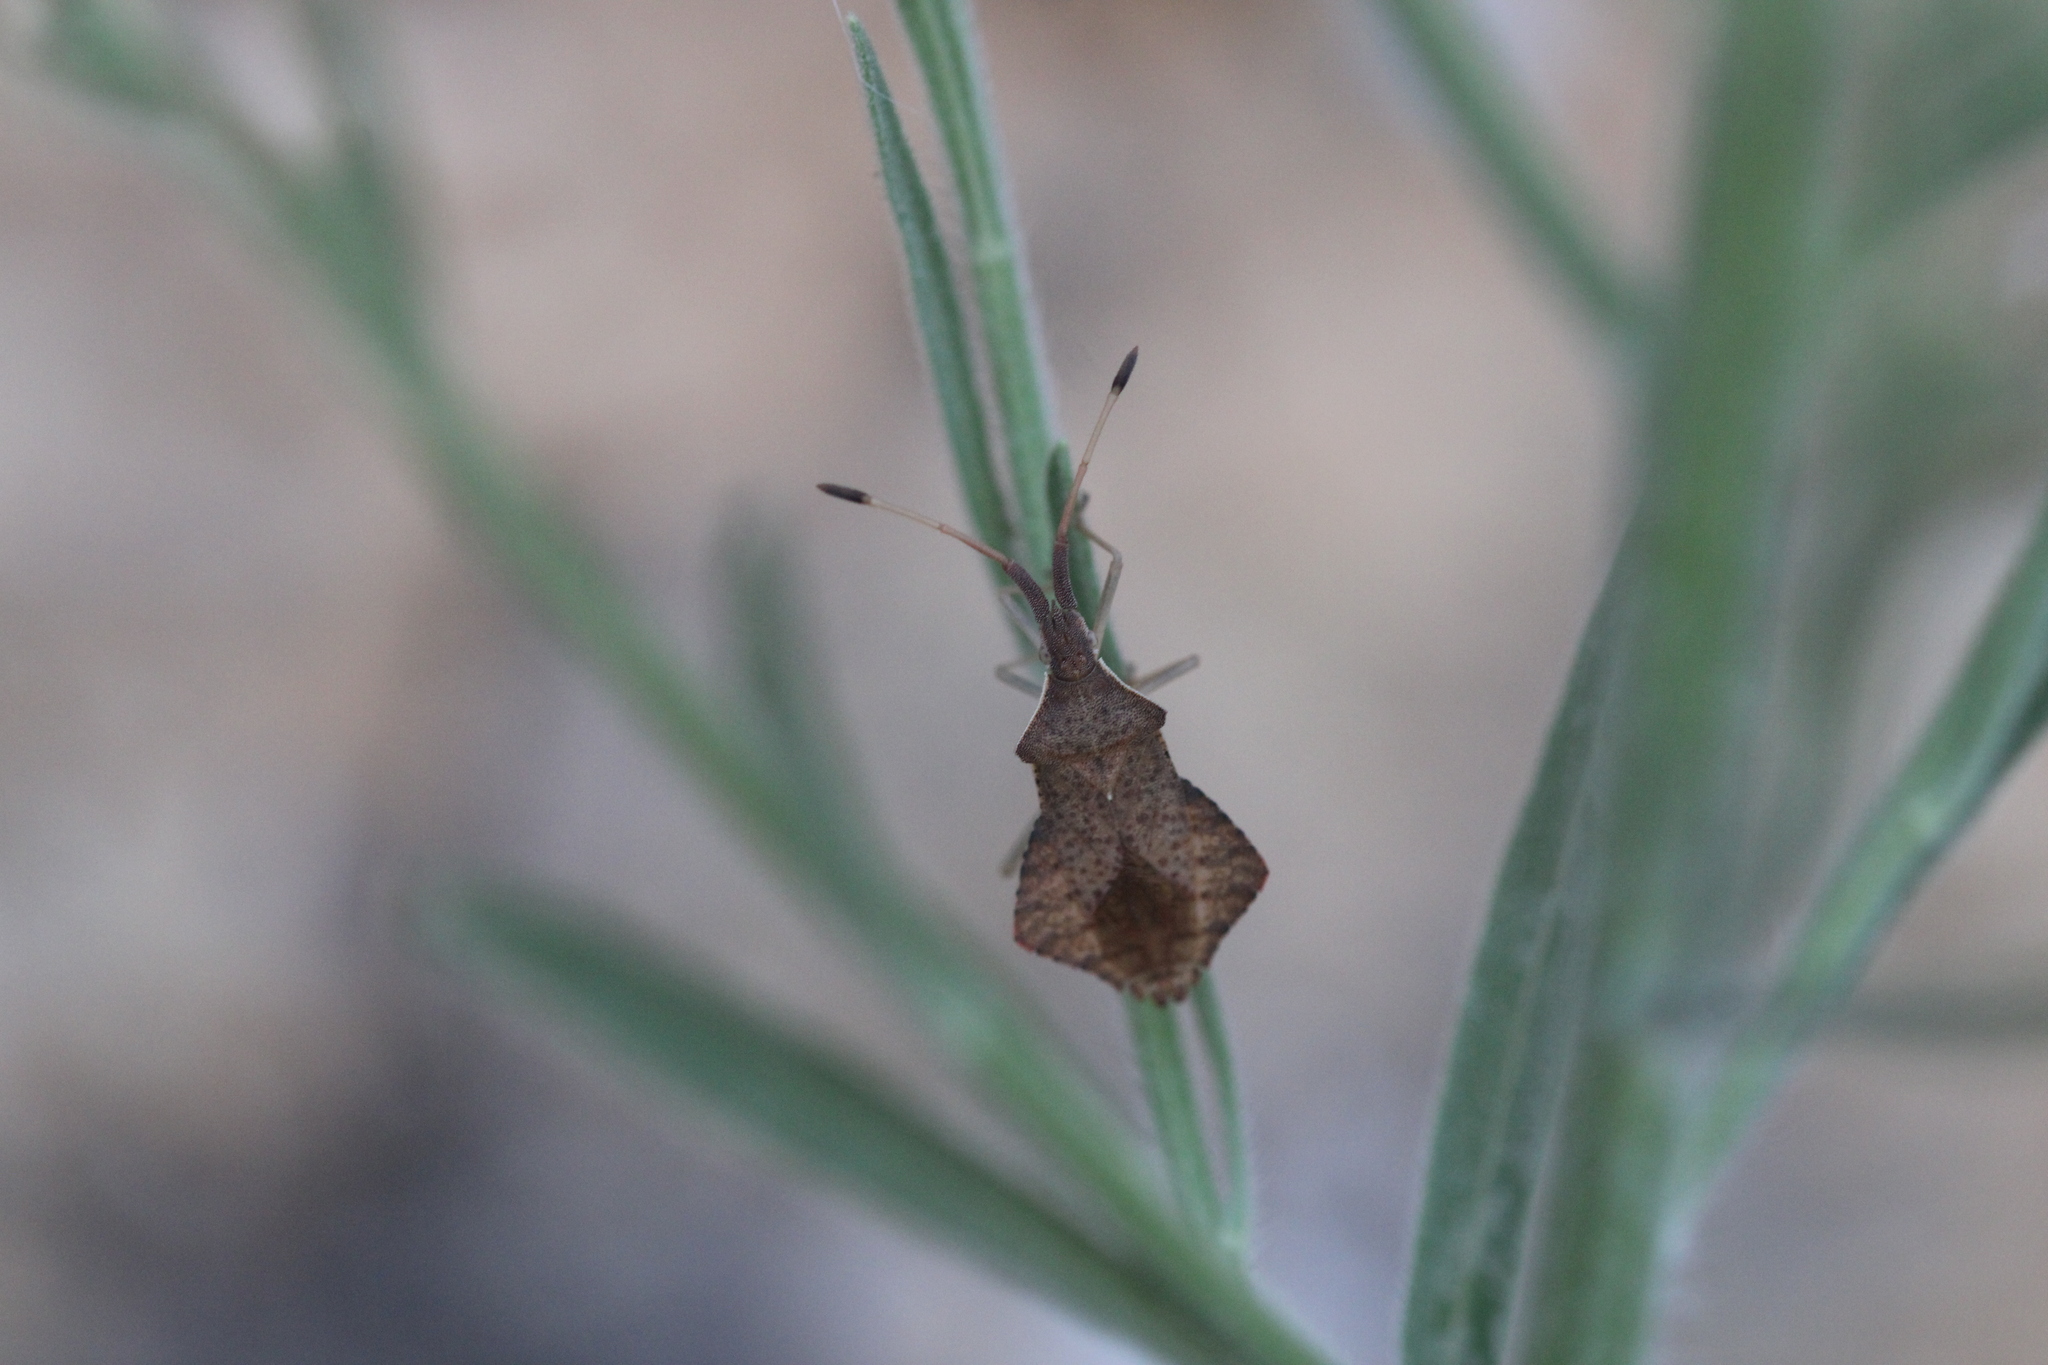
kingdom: Animalia
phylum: Arthropoda
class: Insecta
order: Hemiptera
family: Coreidae
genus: Syromastus
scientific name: Syromastus rhombeus
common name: Rhombic leatherbug
